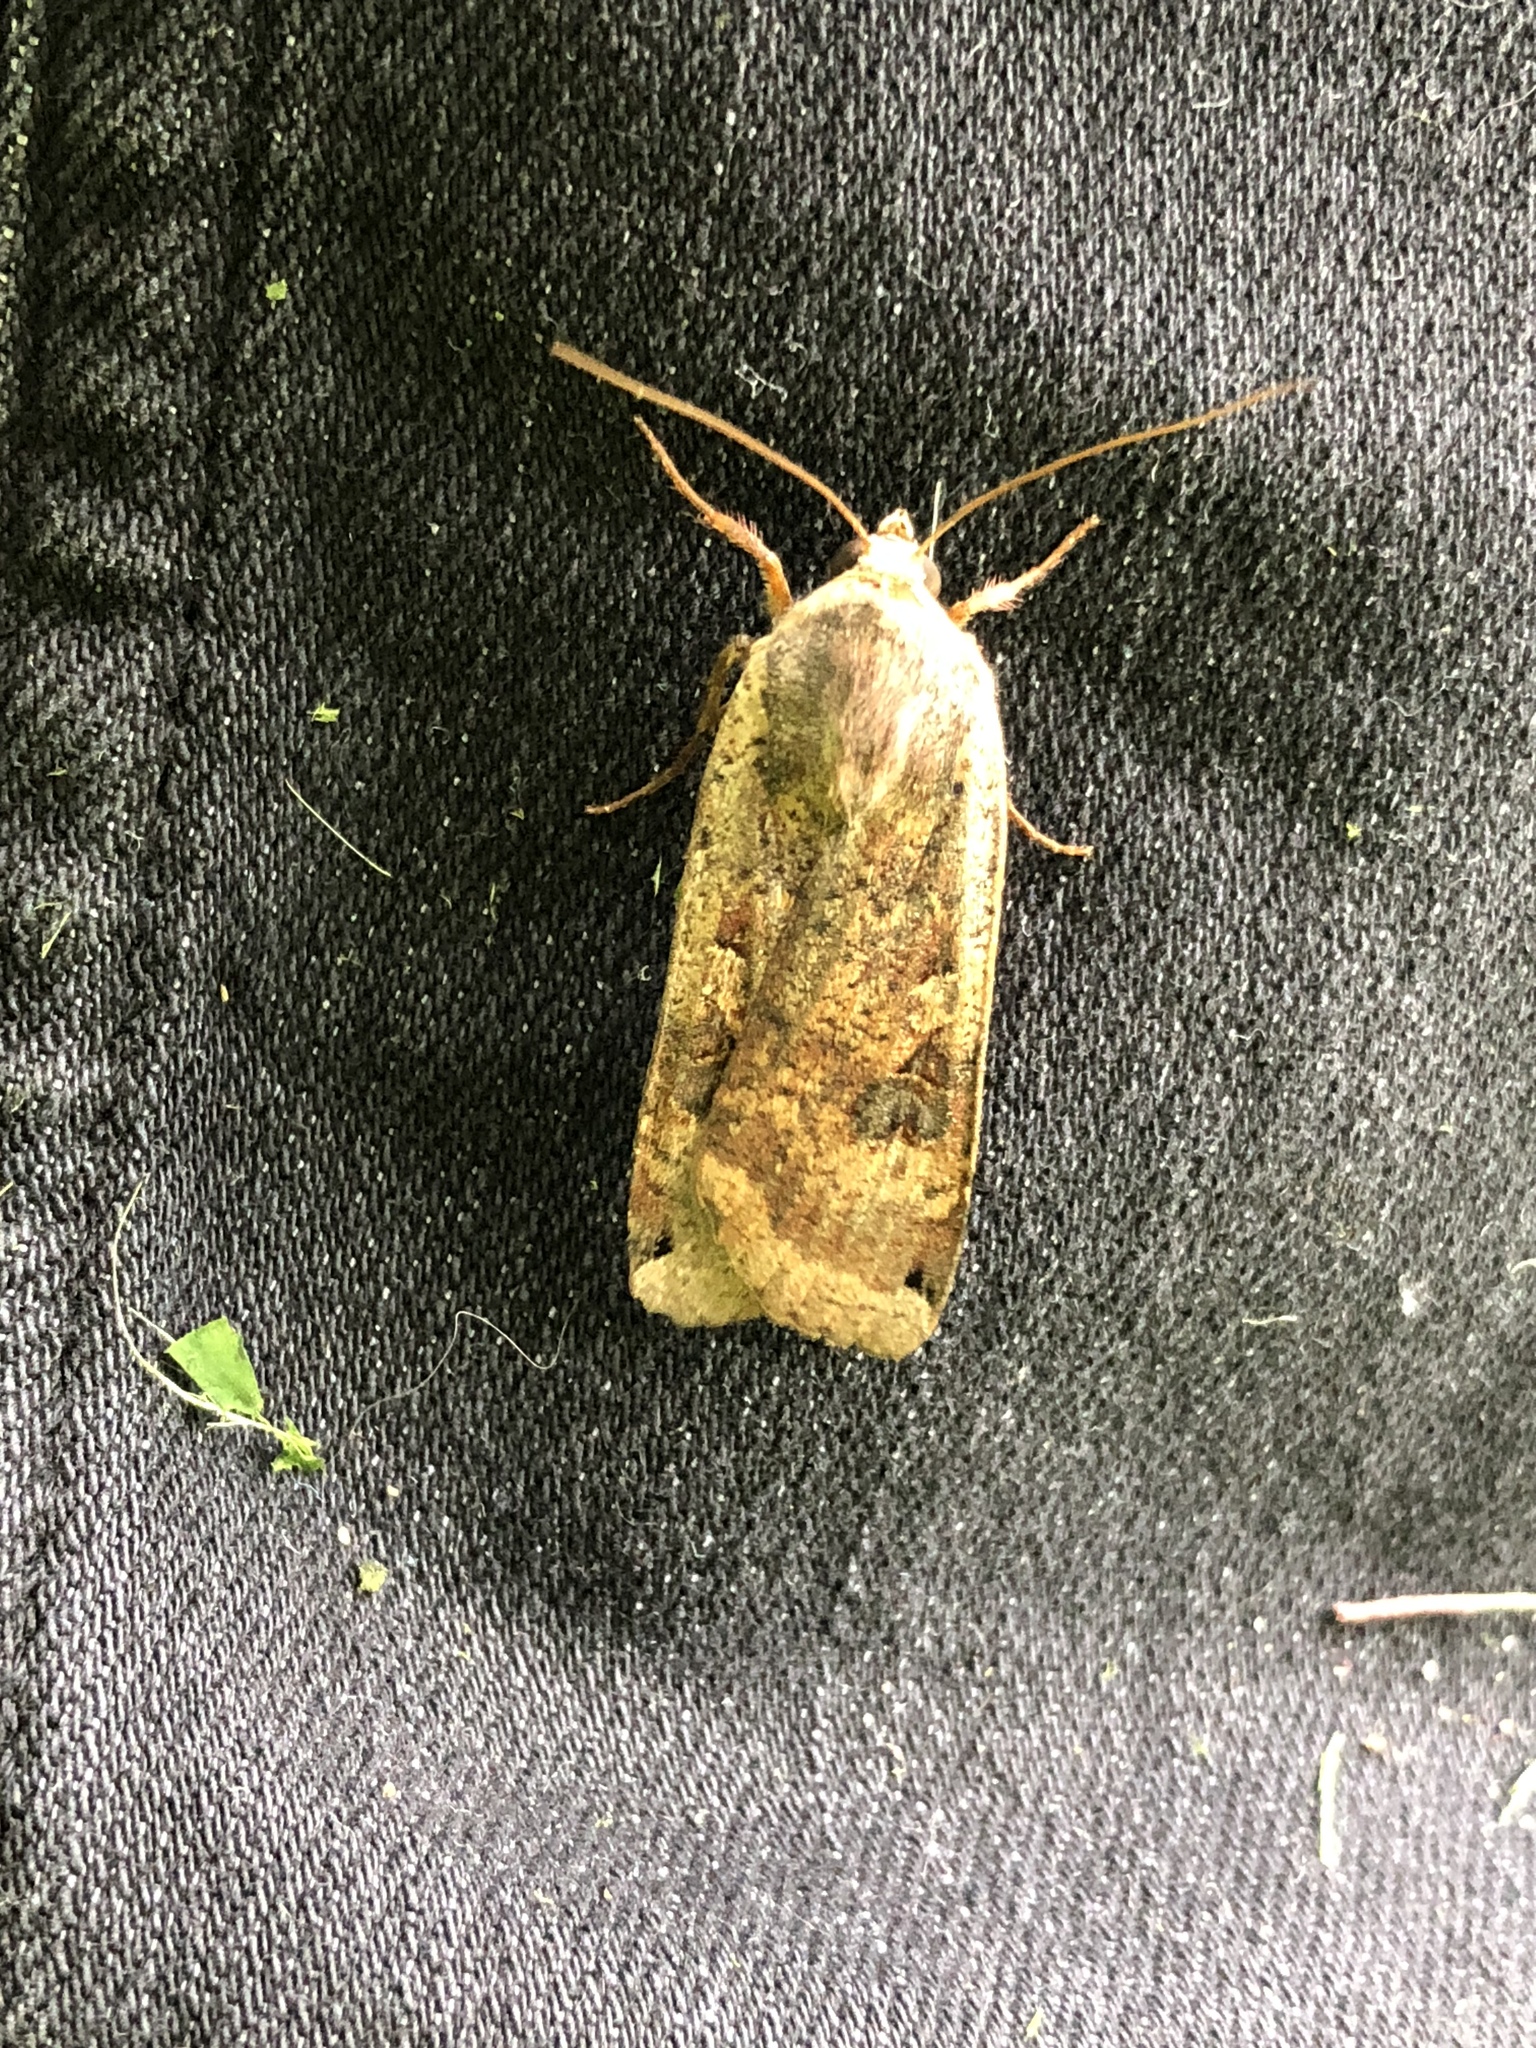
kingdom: Animalia
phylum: Arthropoda
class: Insecta
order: Lepidoptera
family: Noctuidae
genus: Noctua
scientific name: Noctua pronuba
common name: Large yellow underwing
